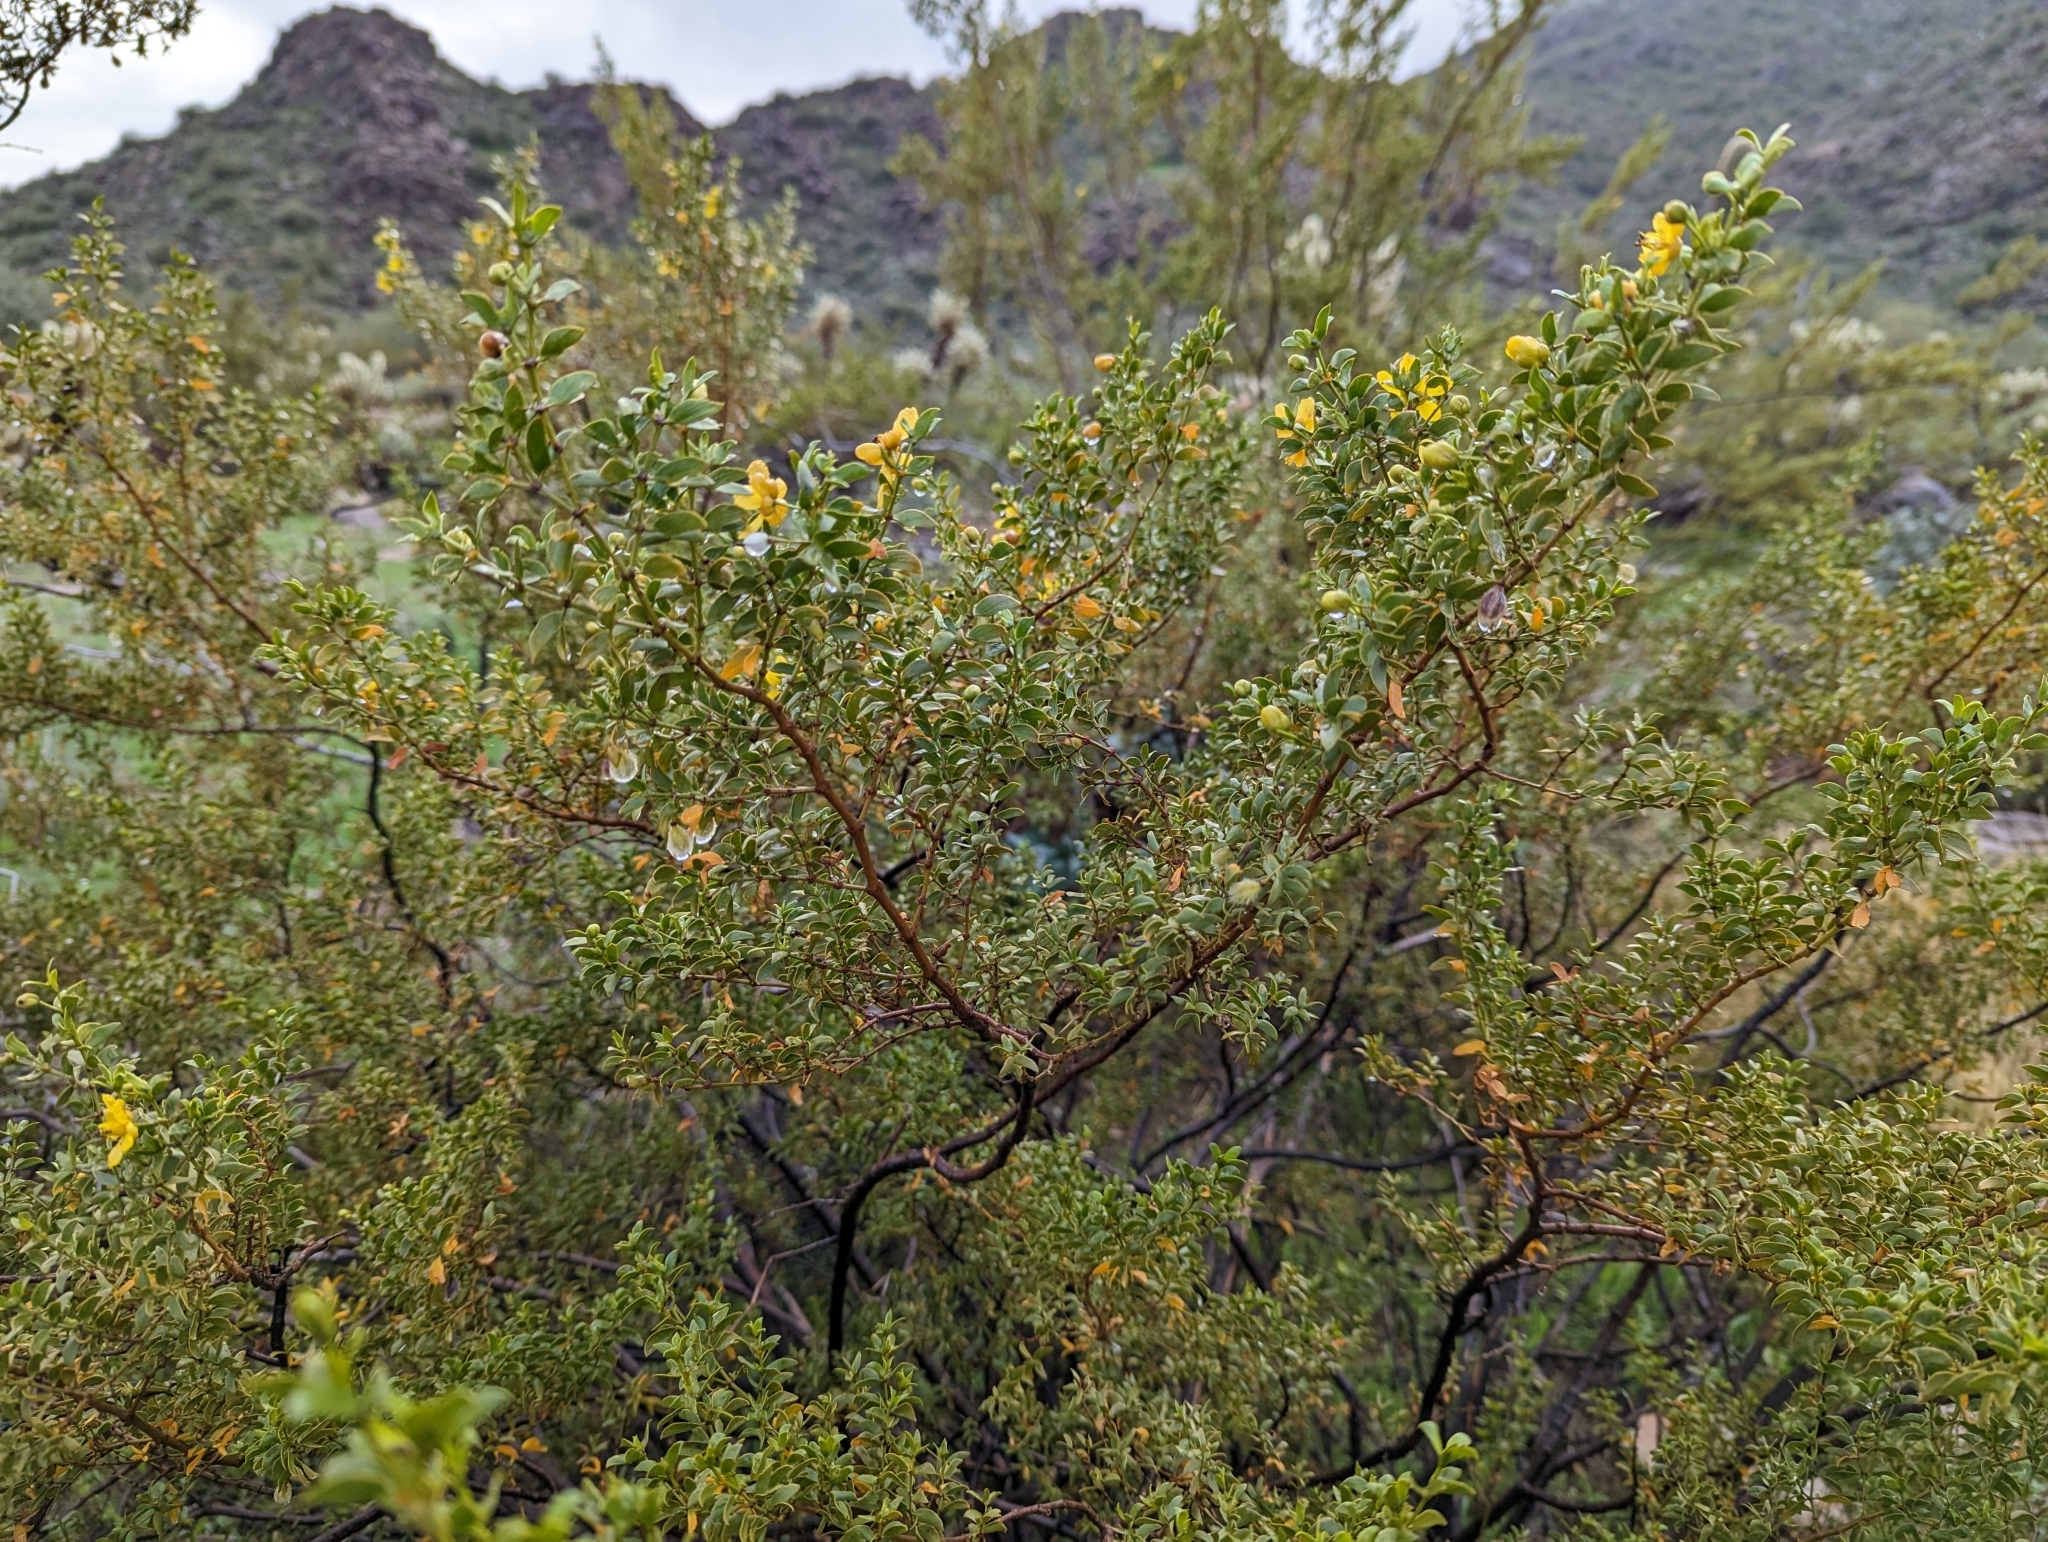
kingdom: Plantae
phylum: Tracheophyta
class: Magnoliopsida
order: Zygophyllales
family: Zygophyllaceae
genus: Larrea
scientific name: Larrea tridentata
